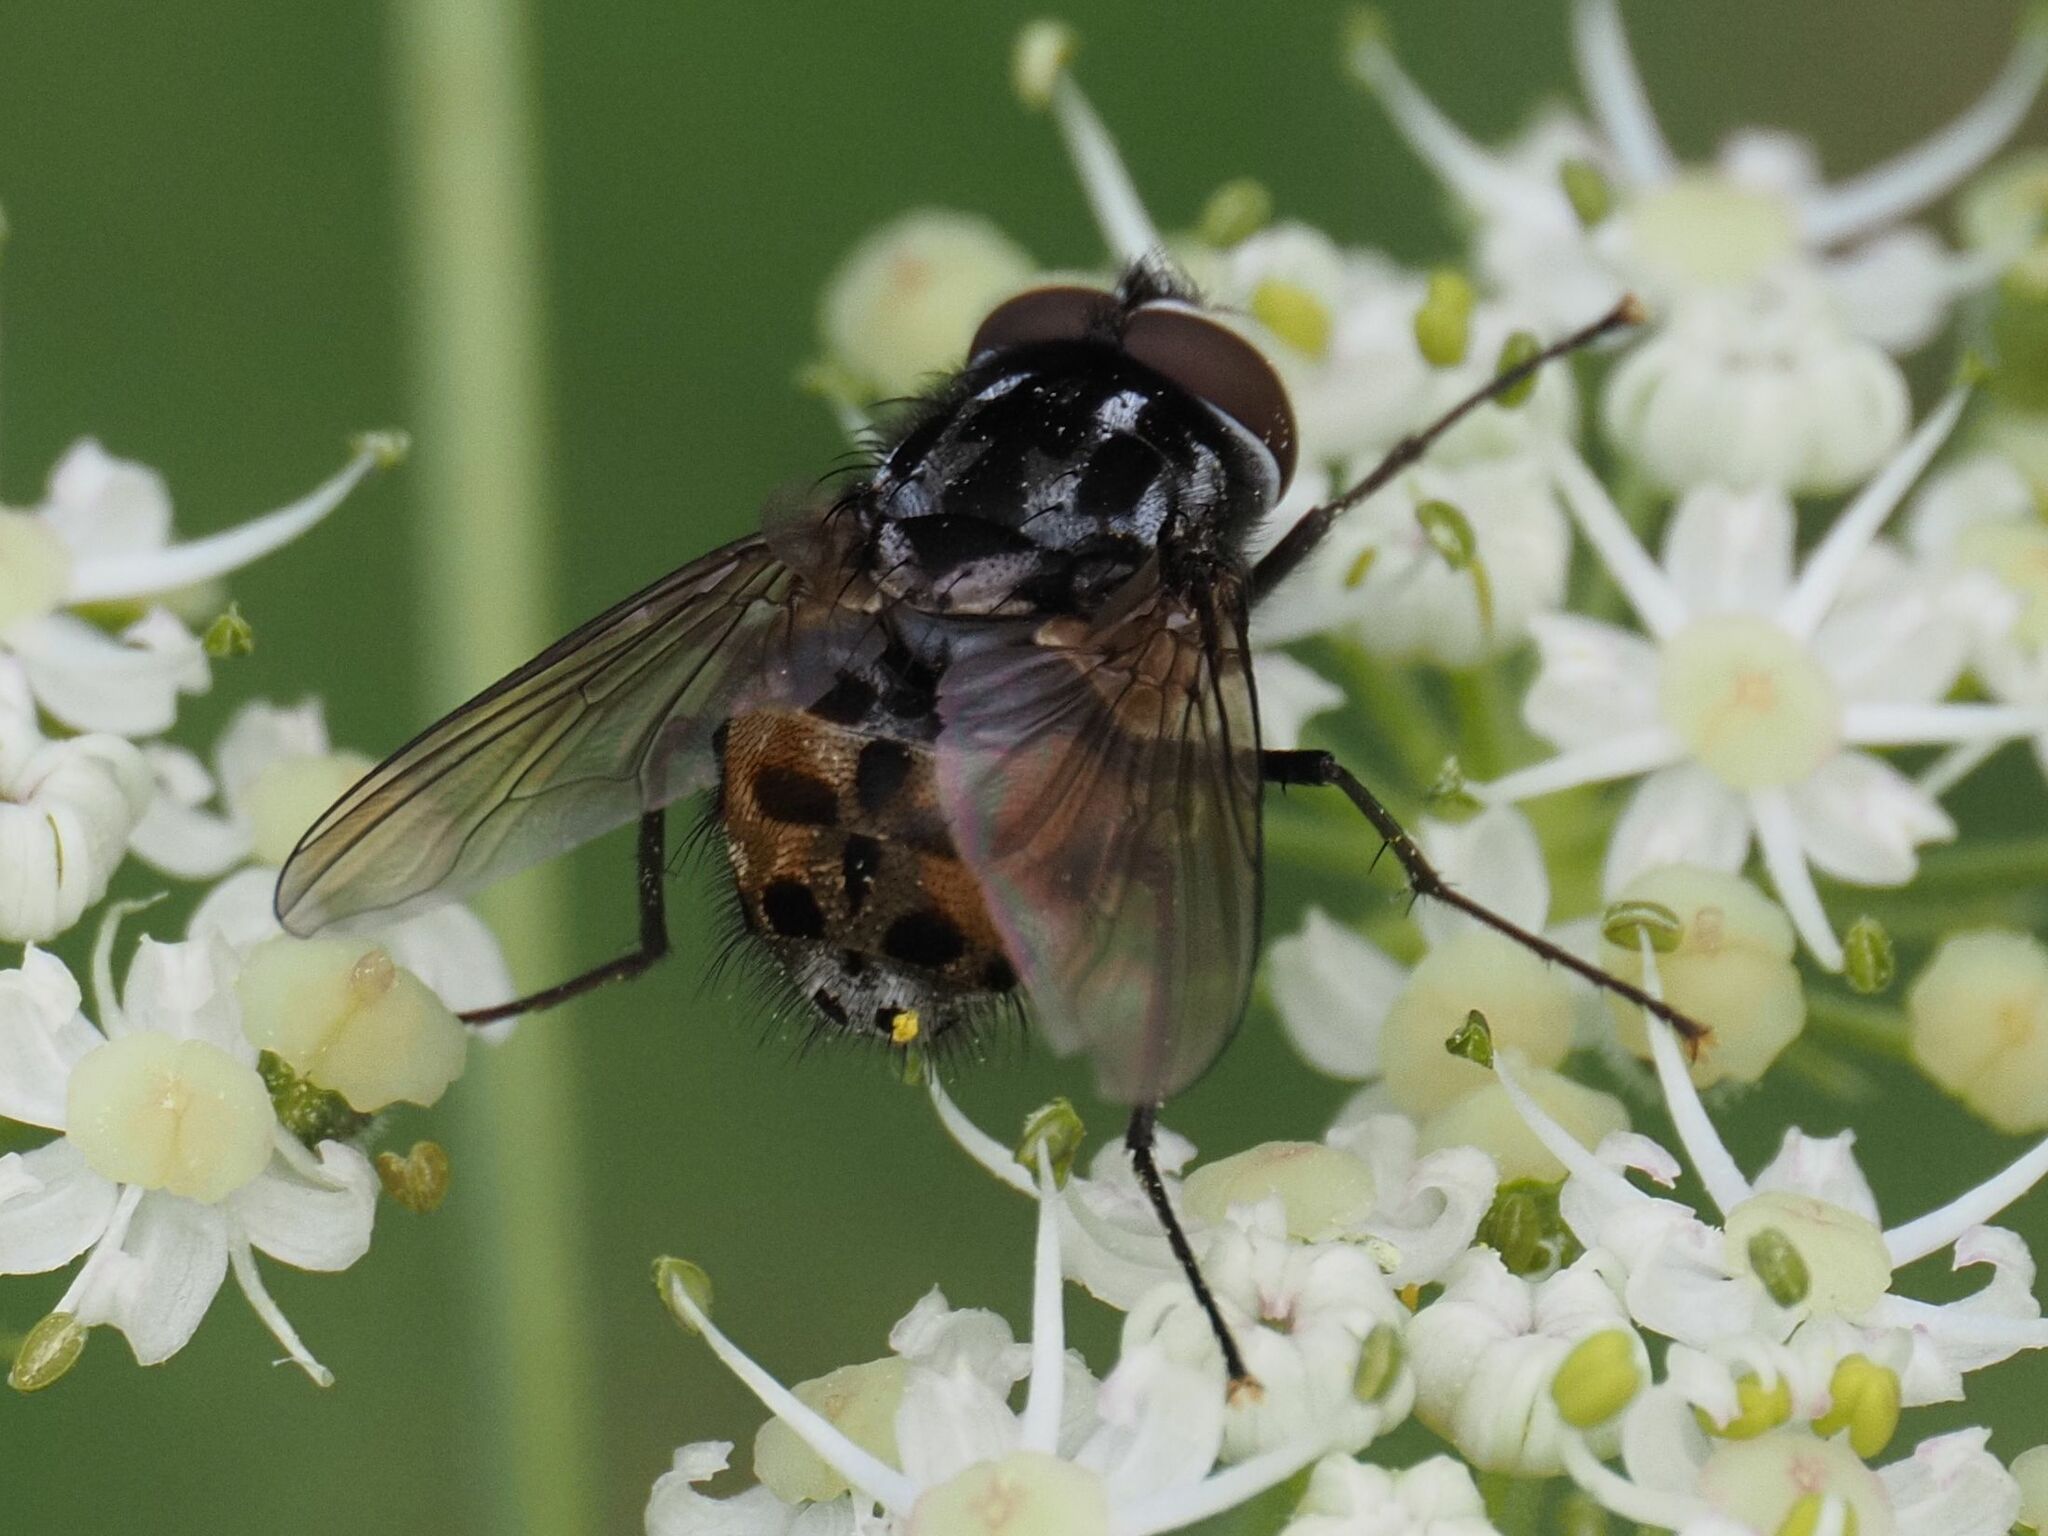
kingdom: Animalia
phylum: Arthropoda
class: Insecta
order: Diptera
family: Muscidae
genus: Graphomya
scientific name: Graphomya maculata
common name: Muscid fly
